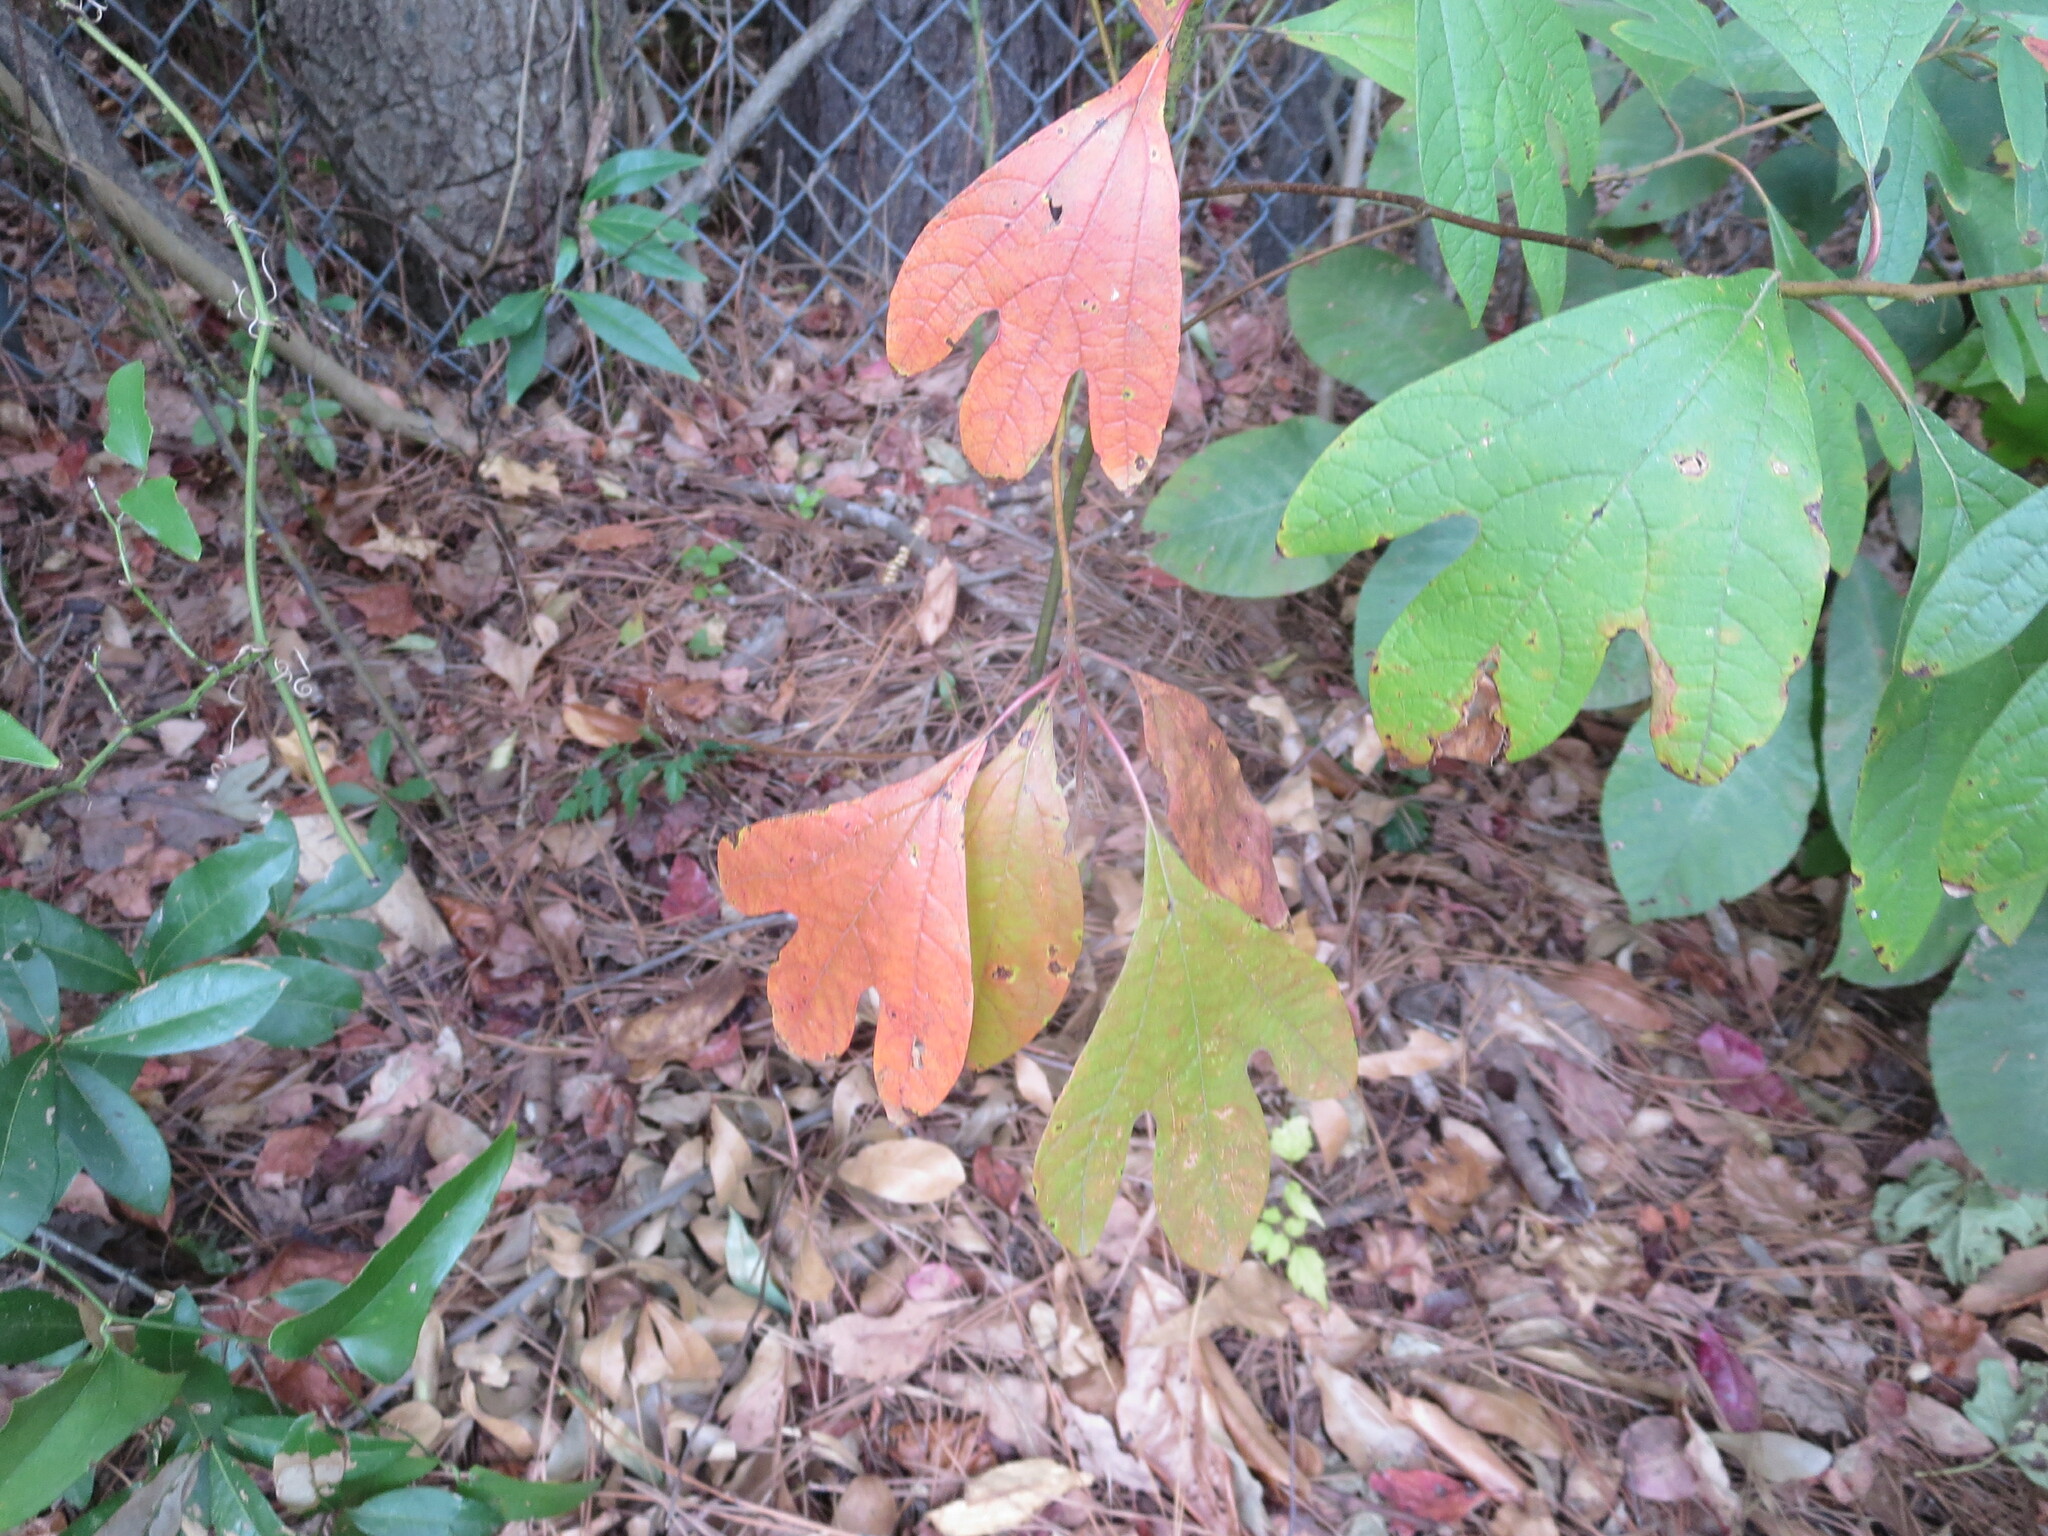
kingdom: Plantae
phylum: Tracheophyta
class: Magnoliopsida
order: Laurales
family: Lauraceae
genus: Sassafras
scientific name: Sassafras albidum
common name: Sassafras
